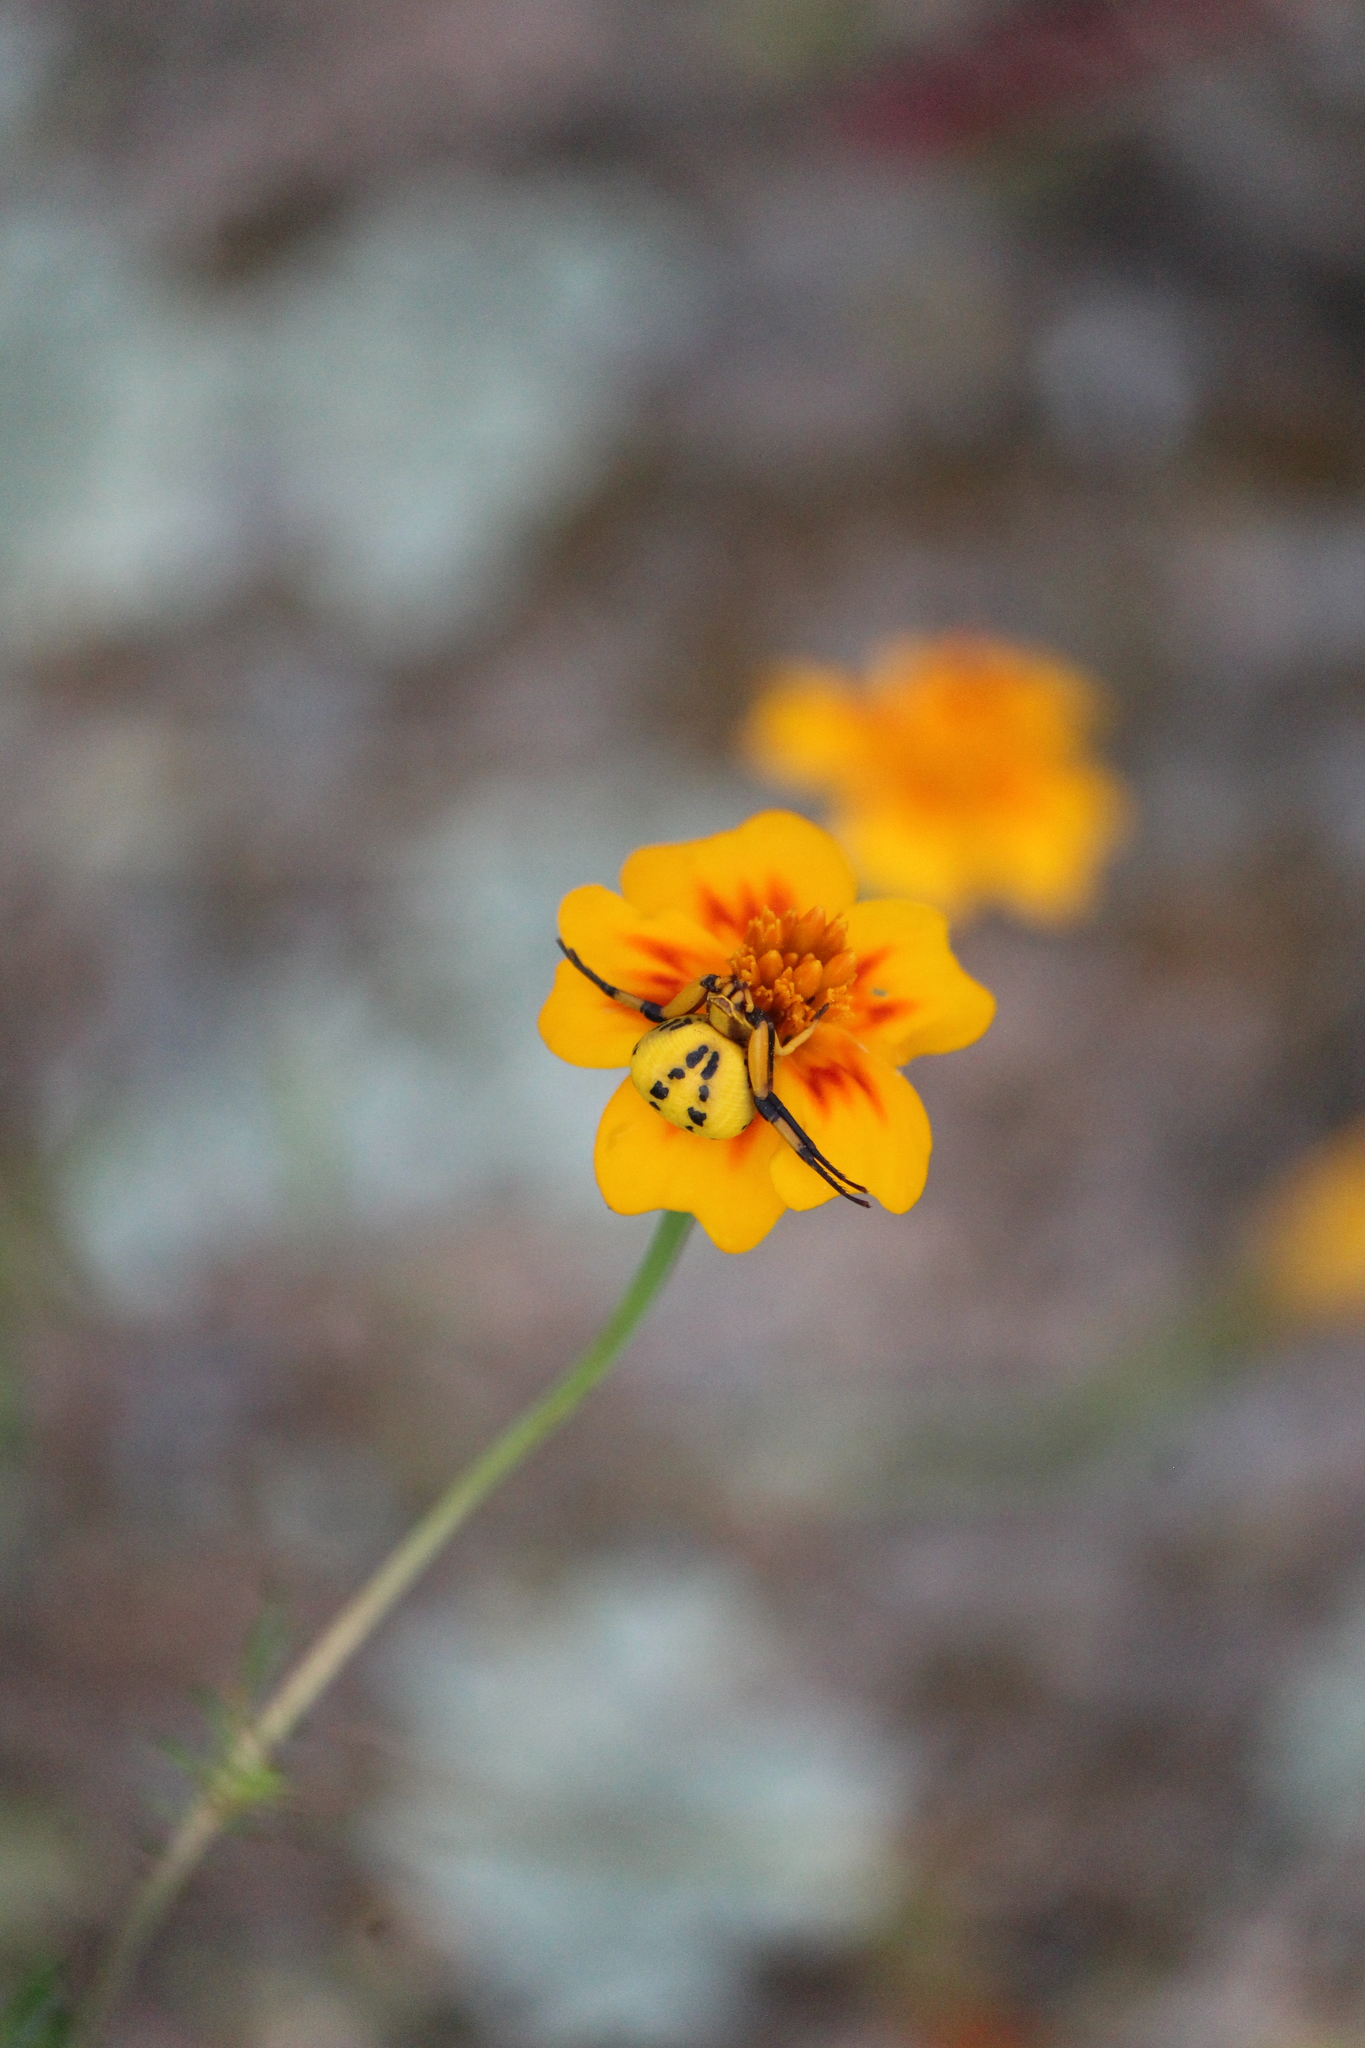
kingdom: Animalia
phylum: Arthropoda
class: Arachnida
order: Araneae
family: Thomisidae
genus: Misumenoides
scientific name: Misumenoides formosipes
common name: White-banded crab spider
